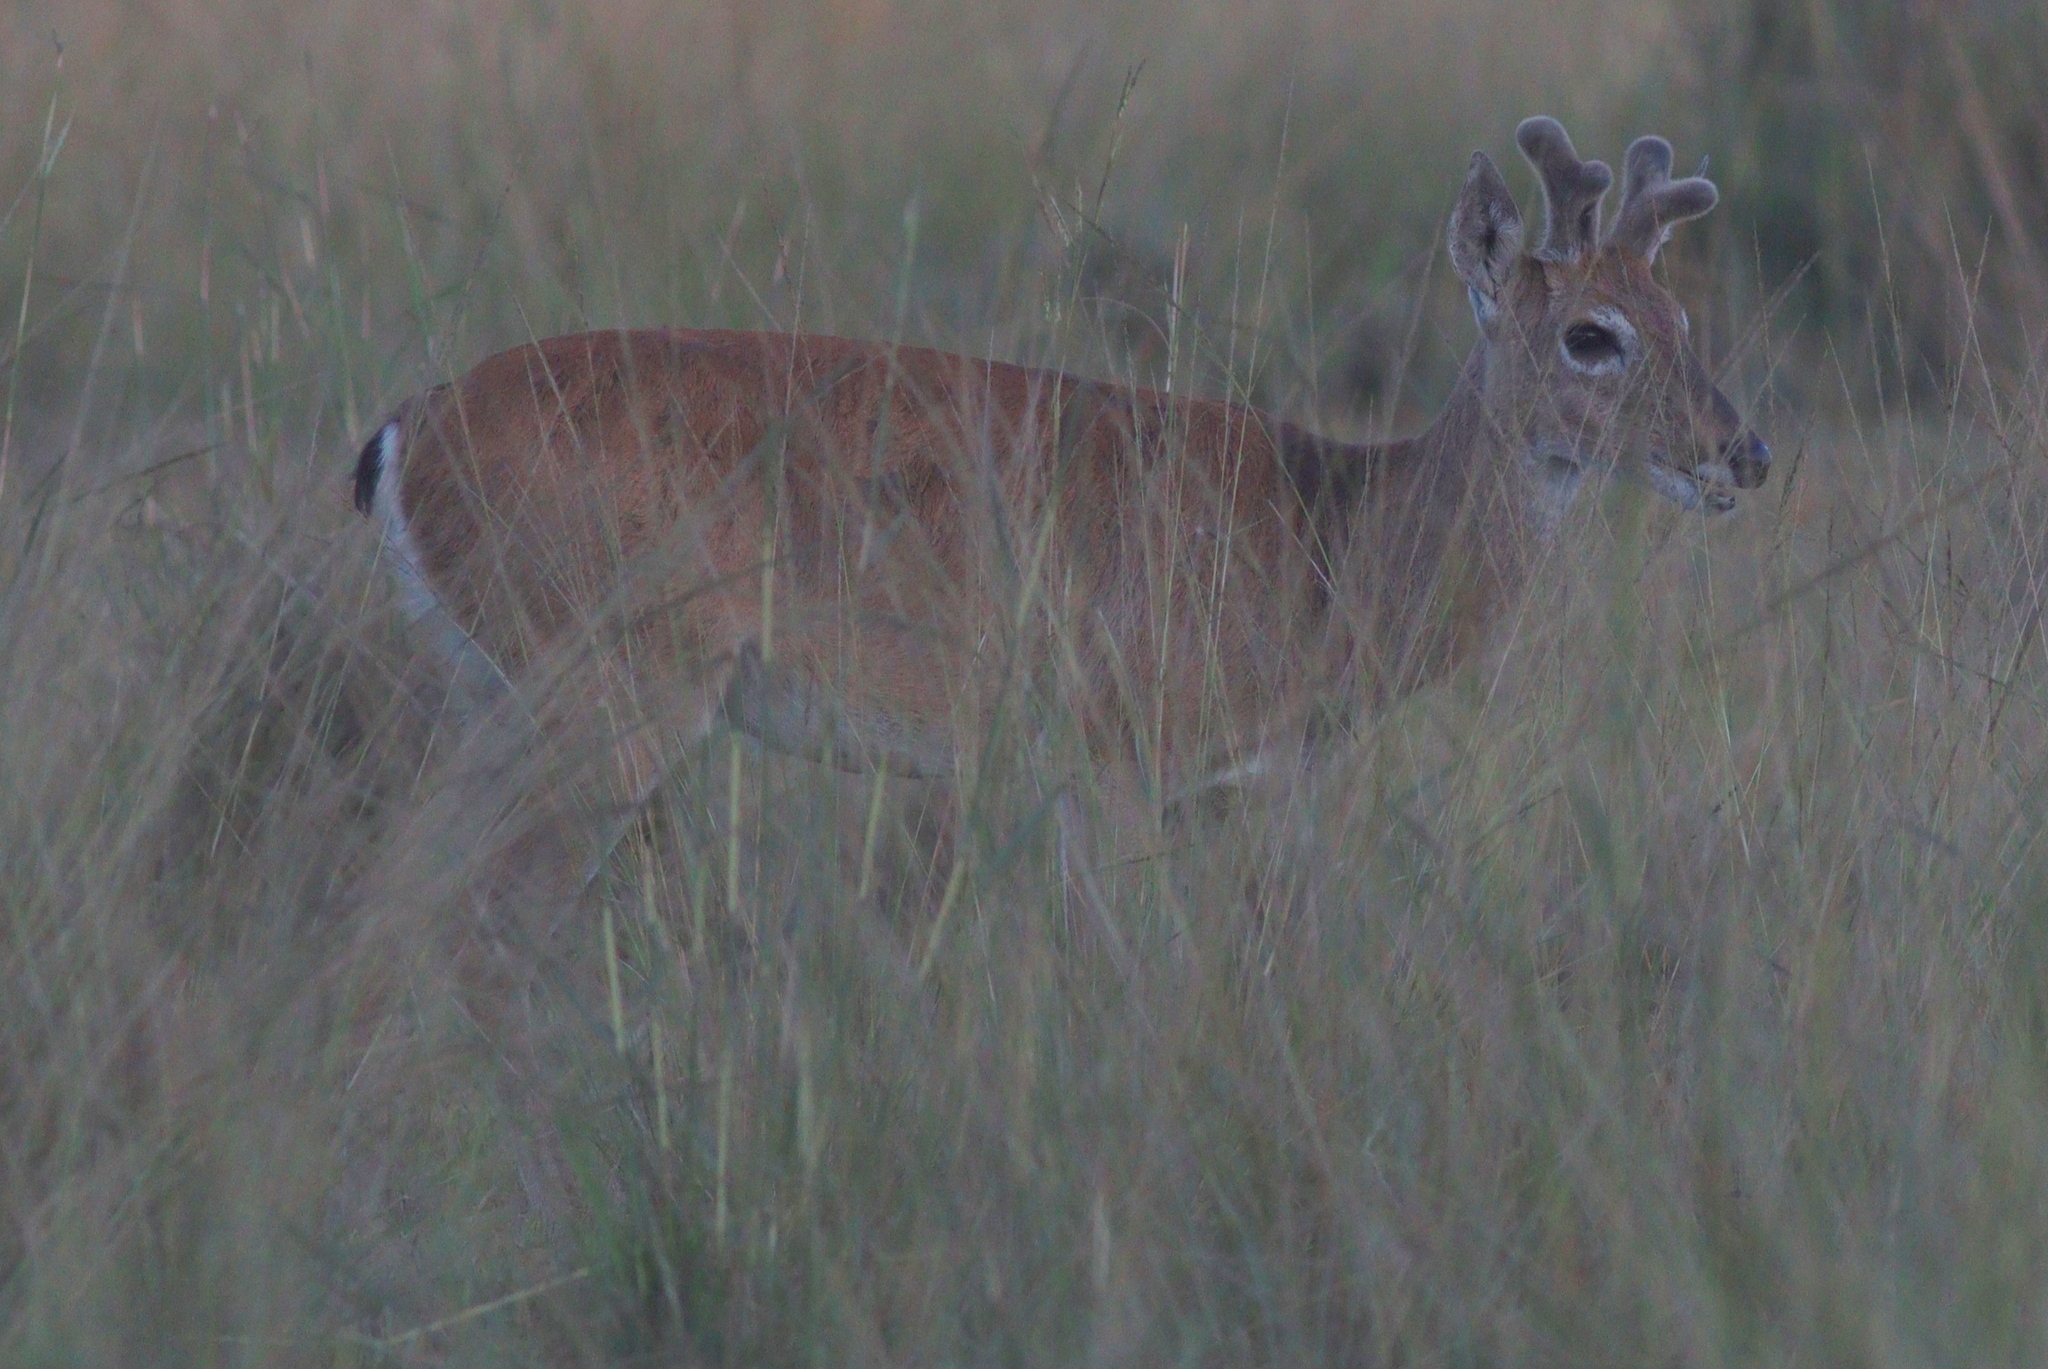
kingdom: Animalia
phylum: Chordata
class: Mammalia
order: Artiodactyla
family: Cervidae
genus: Ozotoceros
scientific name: Ozotoceros bezoarticus
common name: Pampas deer
